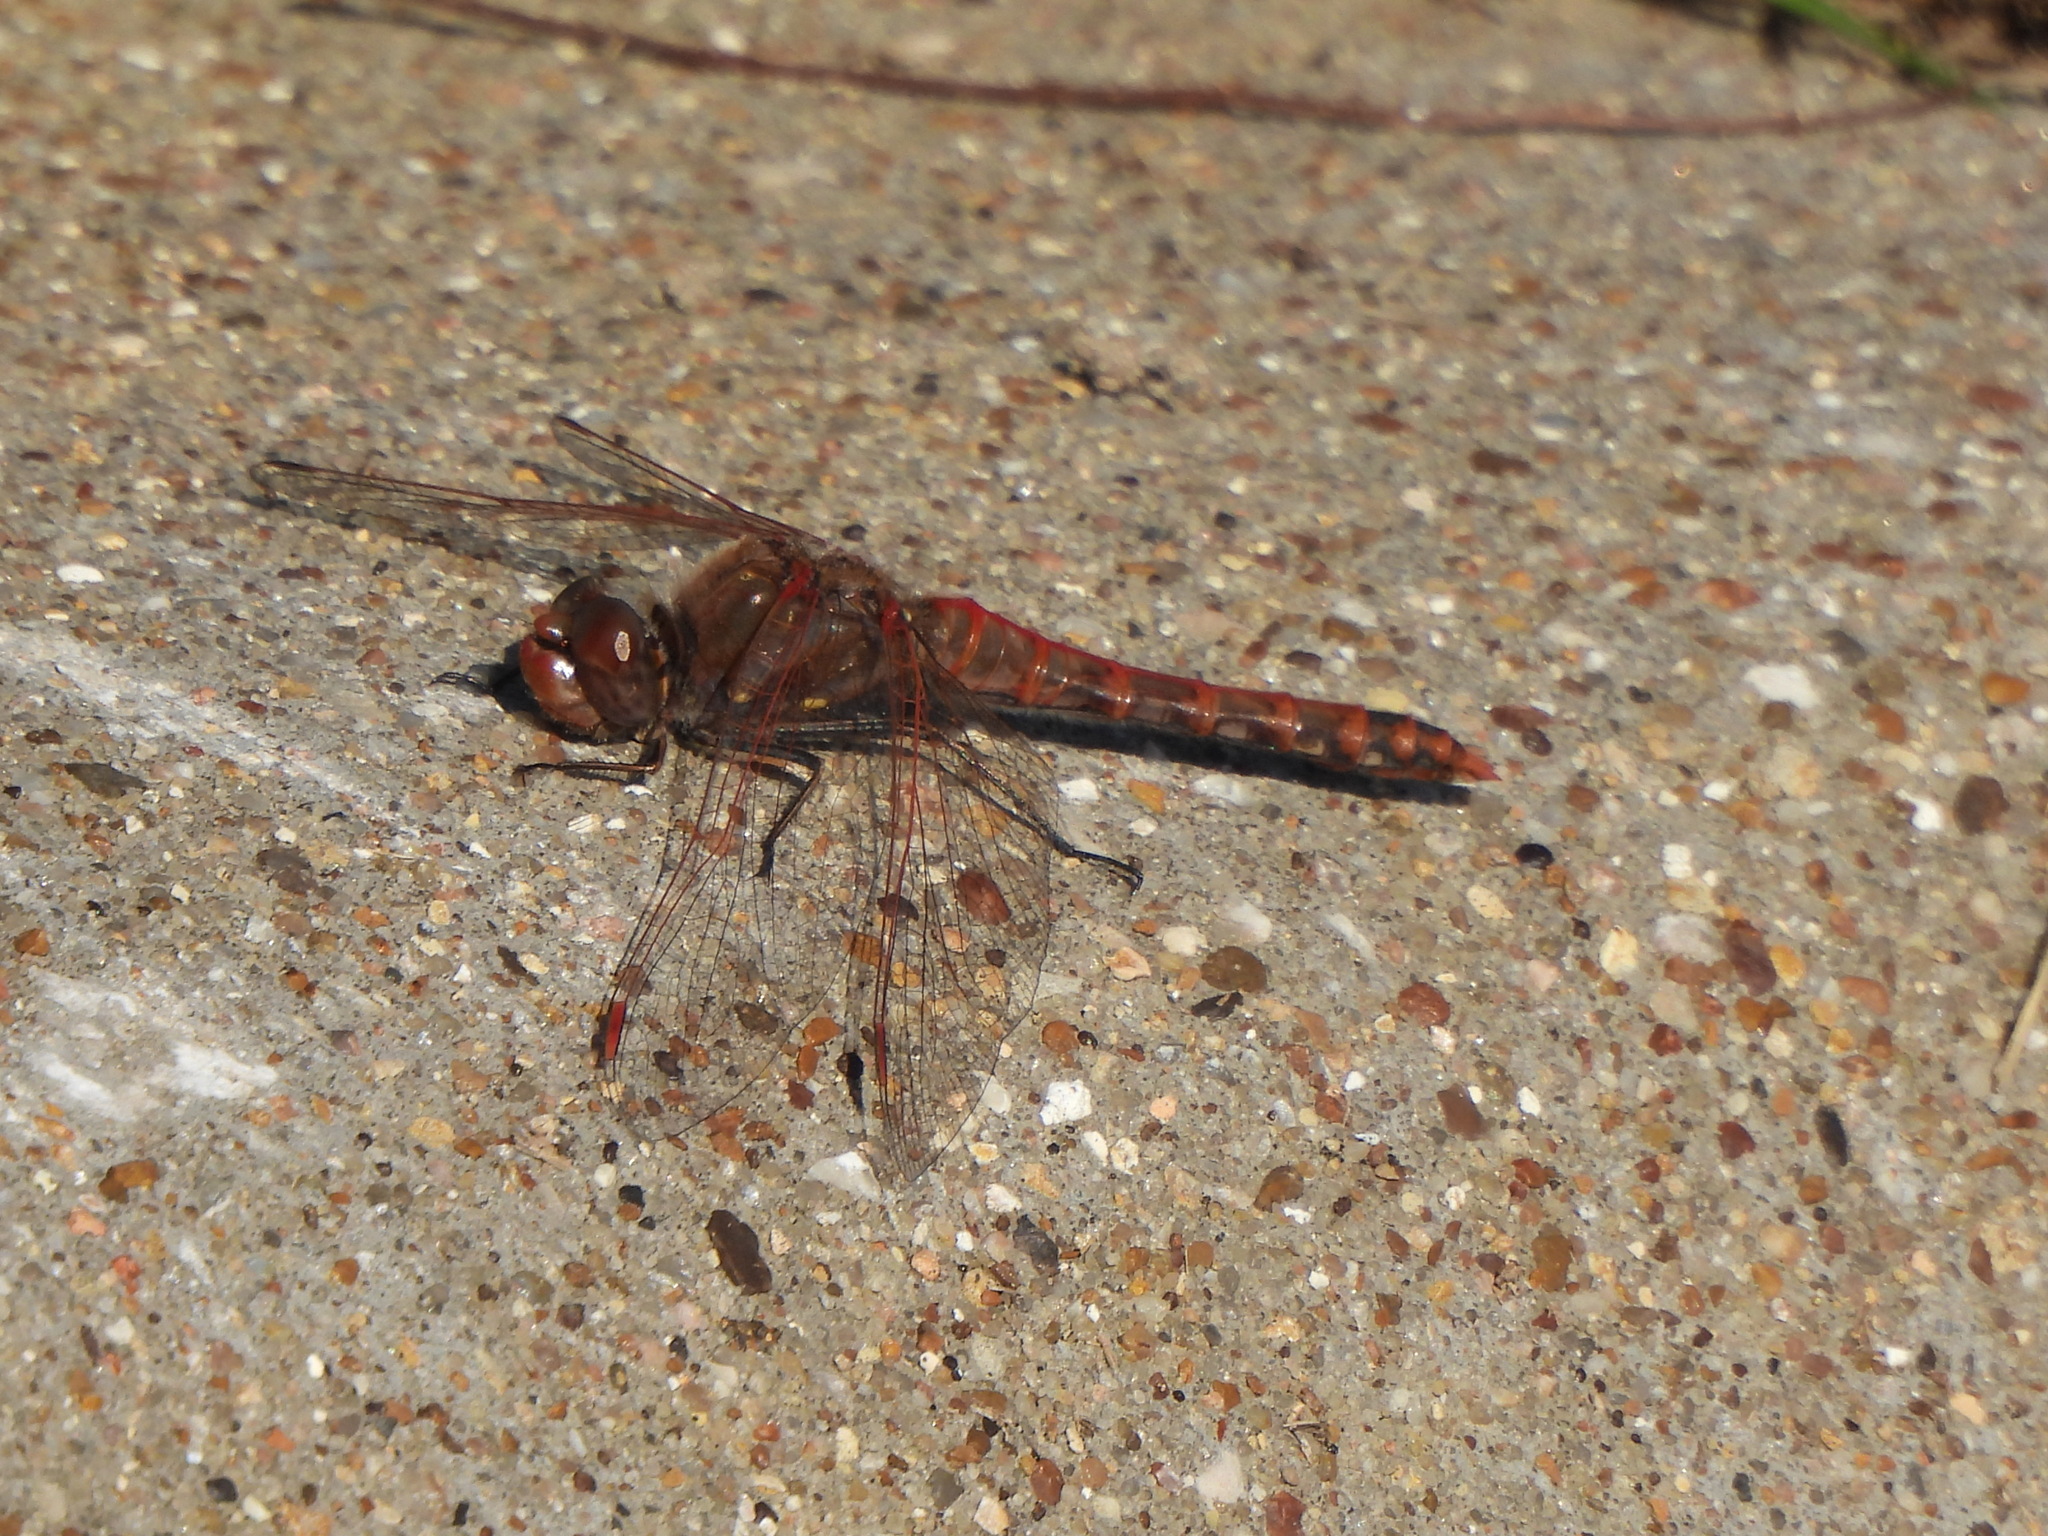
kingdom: Animalia
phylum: Arthropoda
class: Insecta
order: Odonata
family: Libellulidae
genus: Sympetrum
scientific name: Sympetrum corruptum
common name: Variegated meadowhawk
